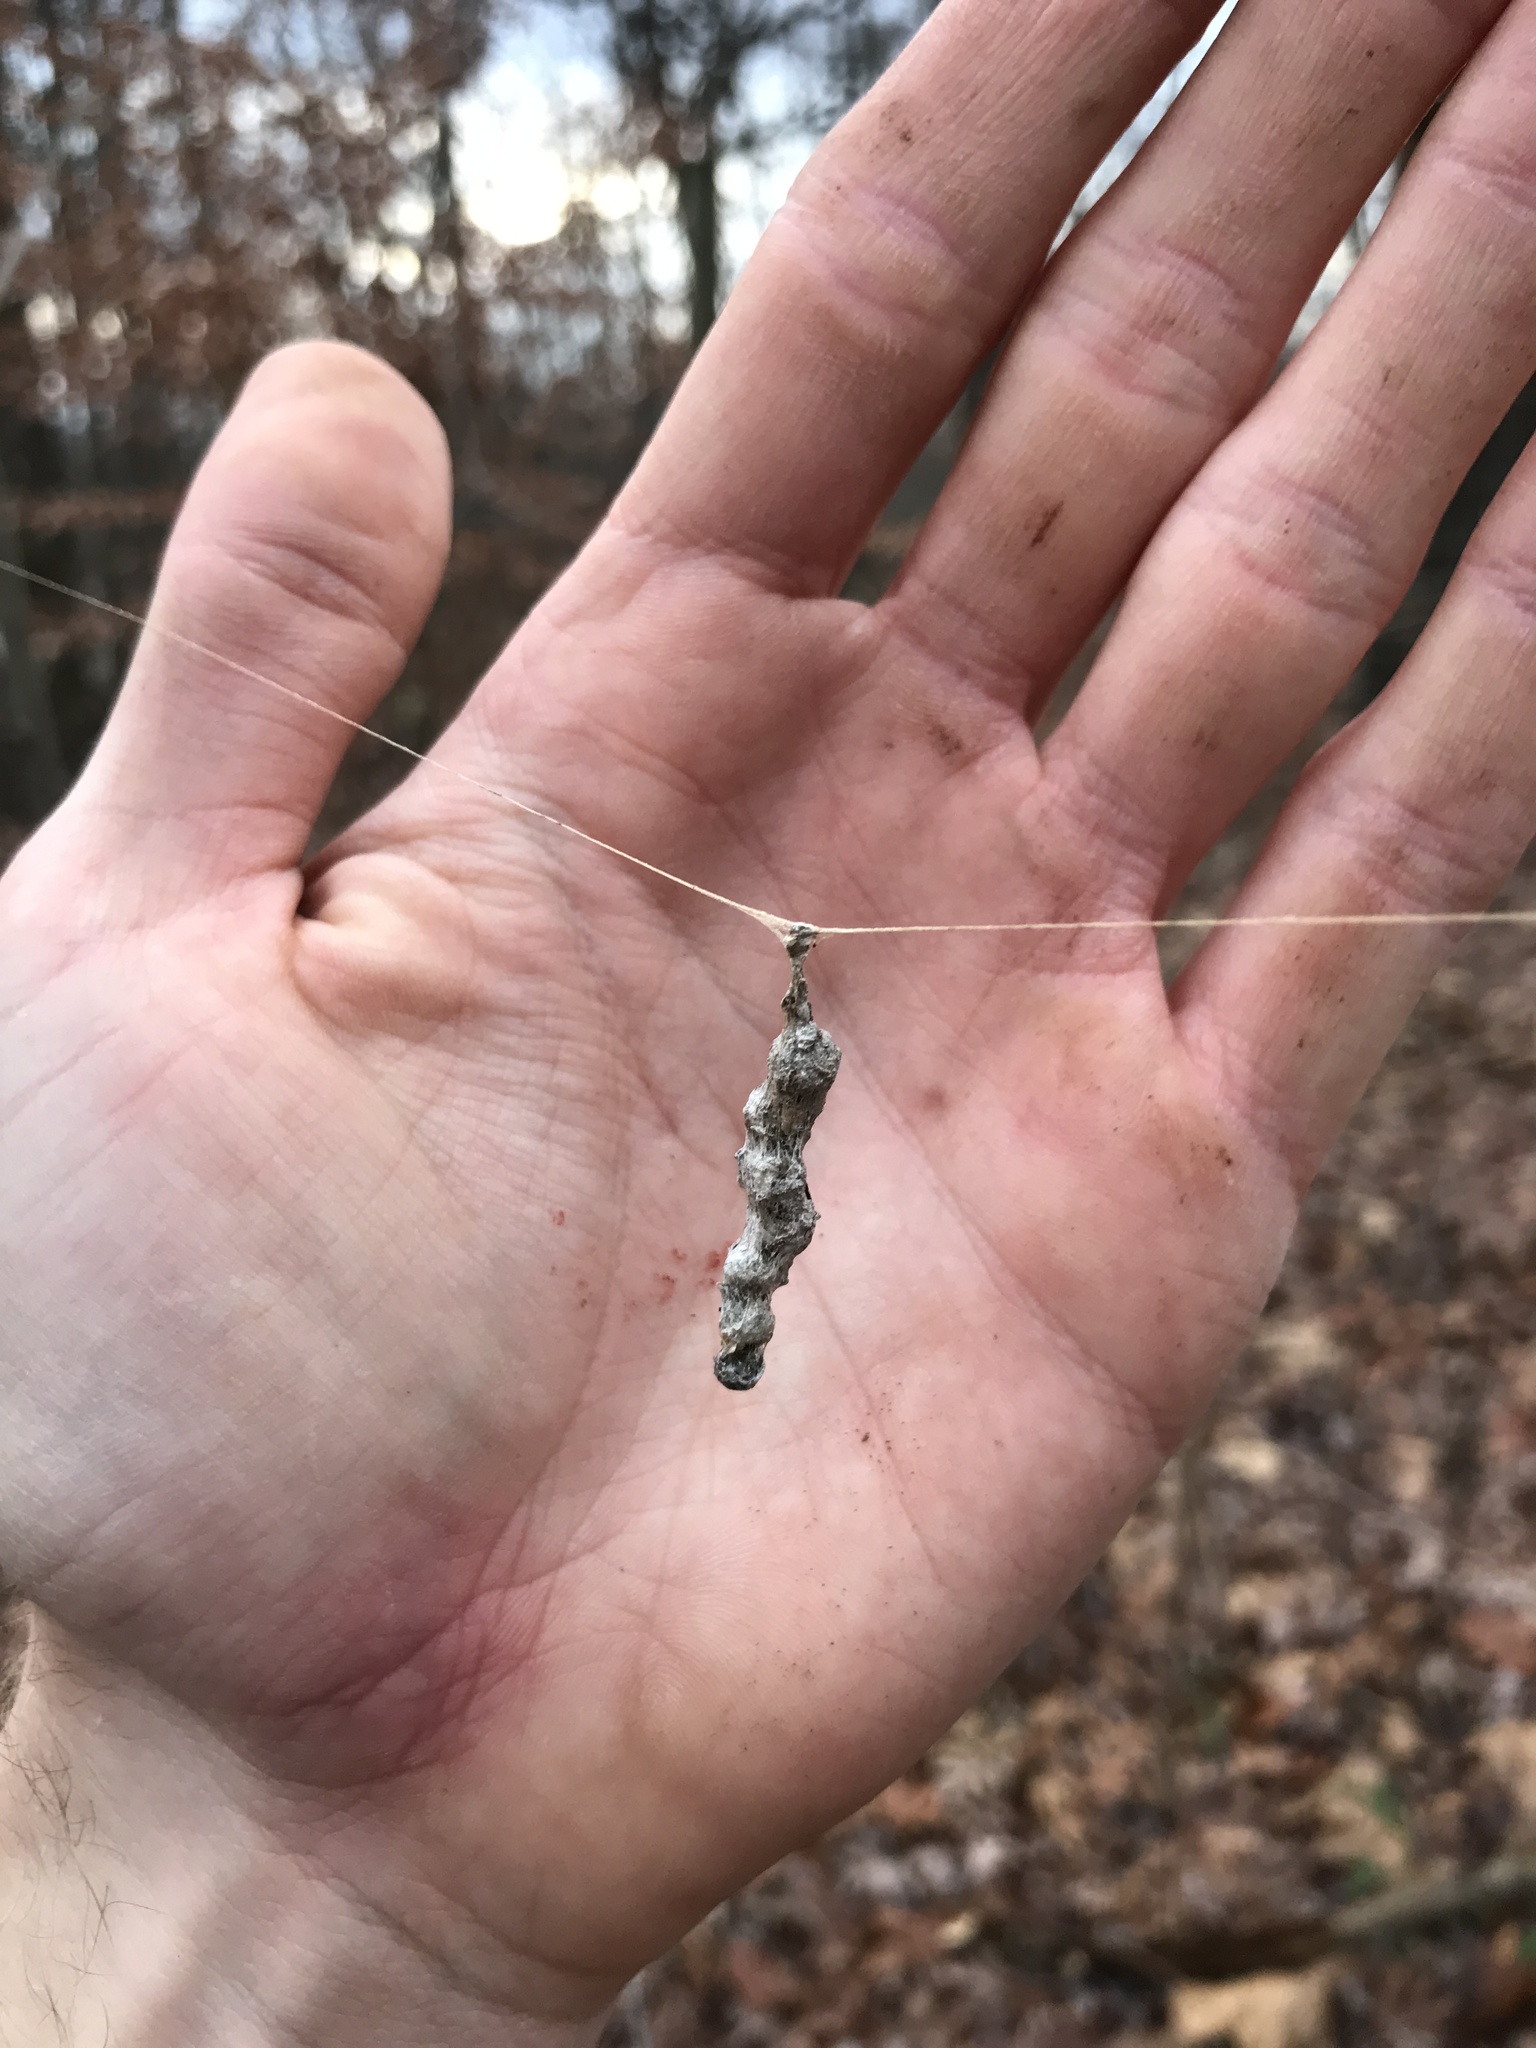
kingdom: Animalia
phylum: Arthropoda
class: Arachnida
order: Araneae
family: Araneidae
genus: Mecynogea
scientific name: Mecynogea lemniscata
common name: Orb weavers
